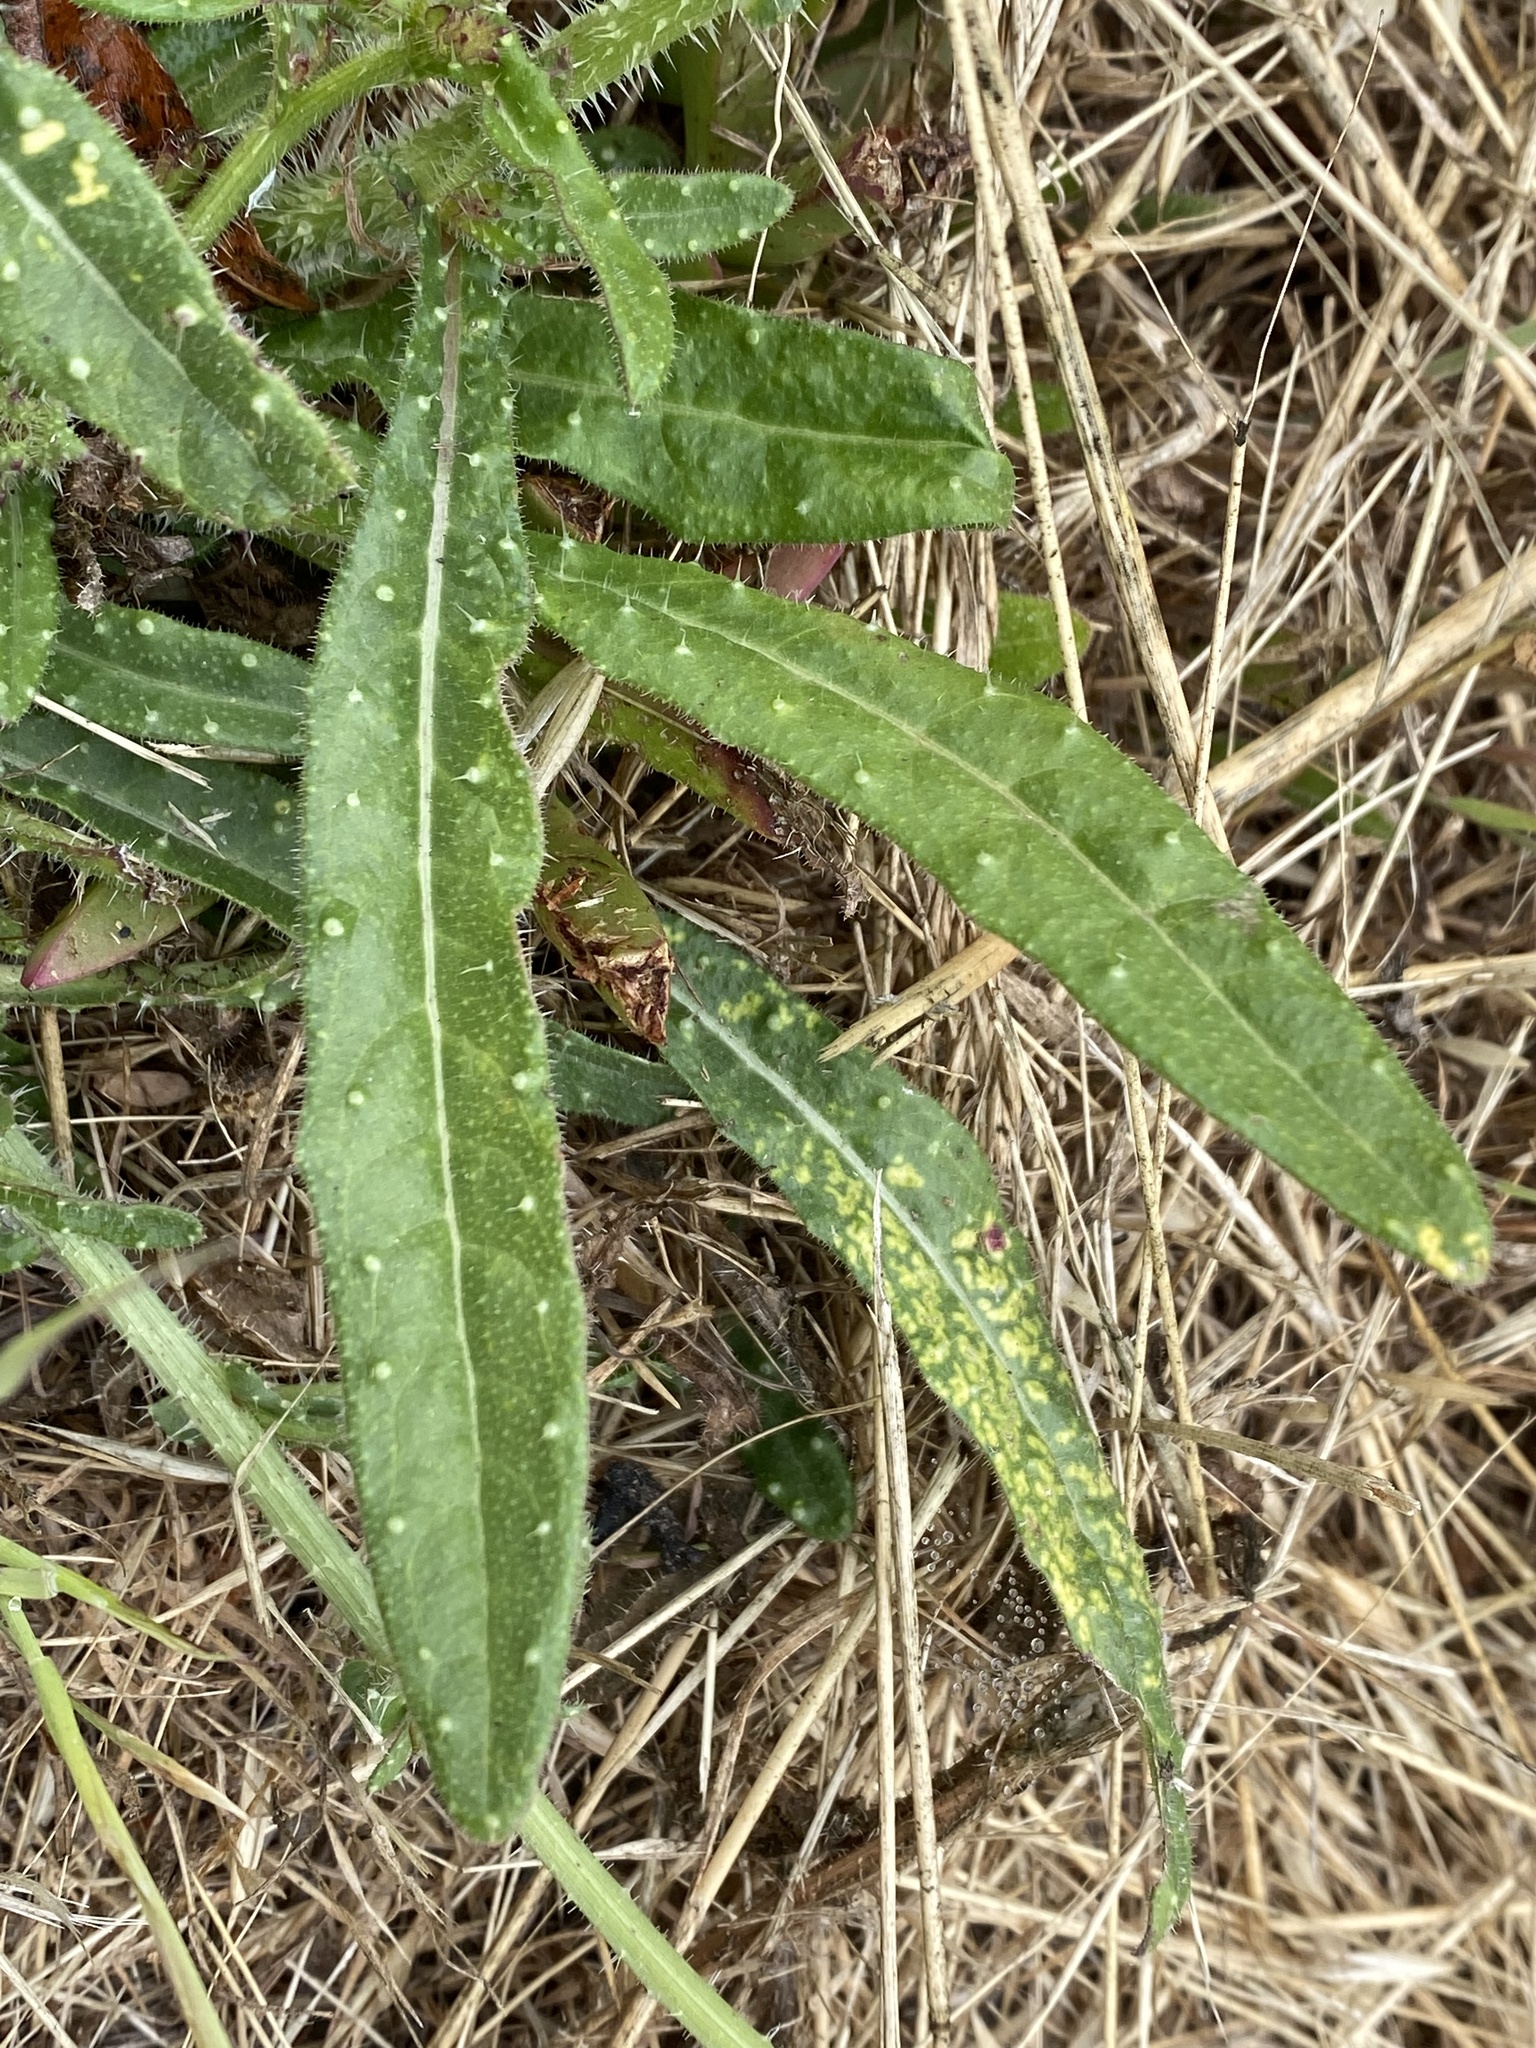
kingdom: Plantae
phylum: Tracheophyta
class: Magnoliopsida
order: Asterales
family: Asteraceae
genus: Helminthotheca
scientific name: Helminthotheca echioides
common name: Ox-tongue
